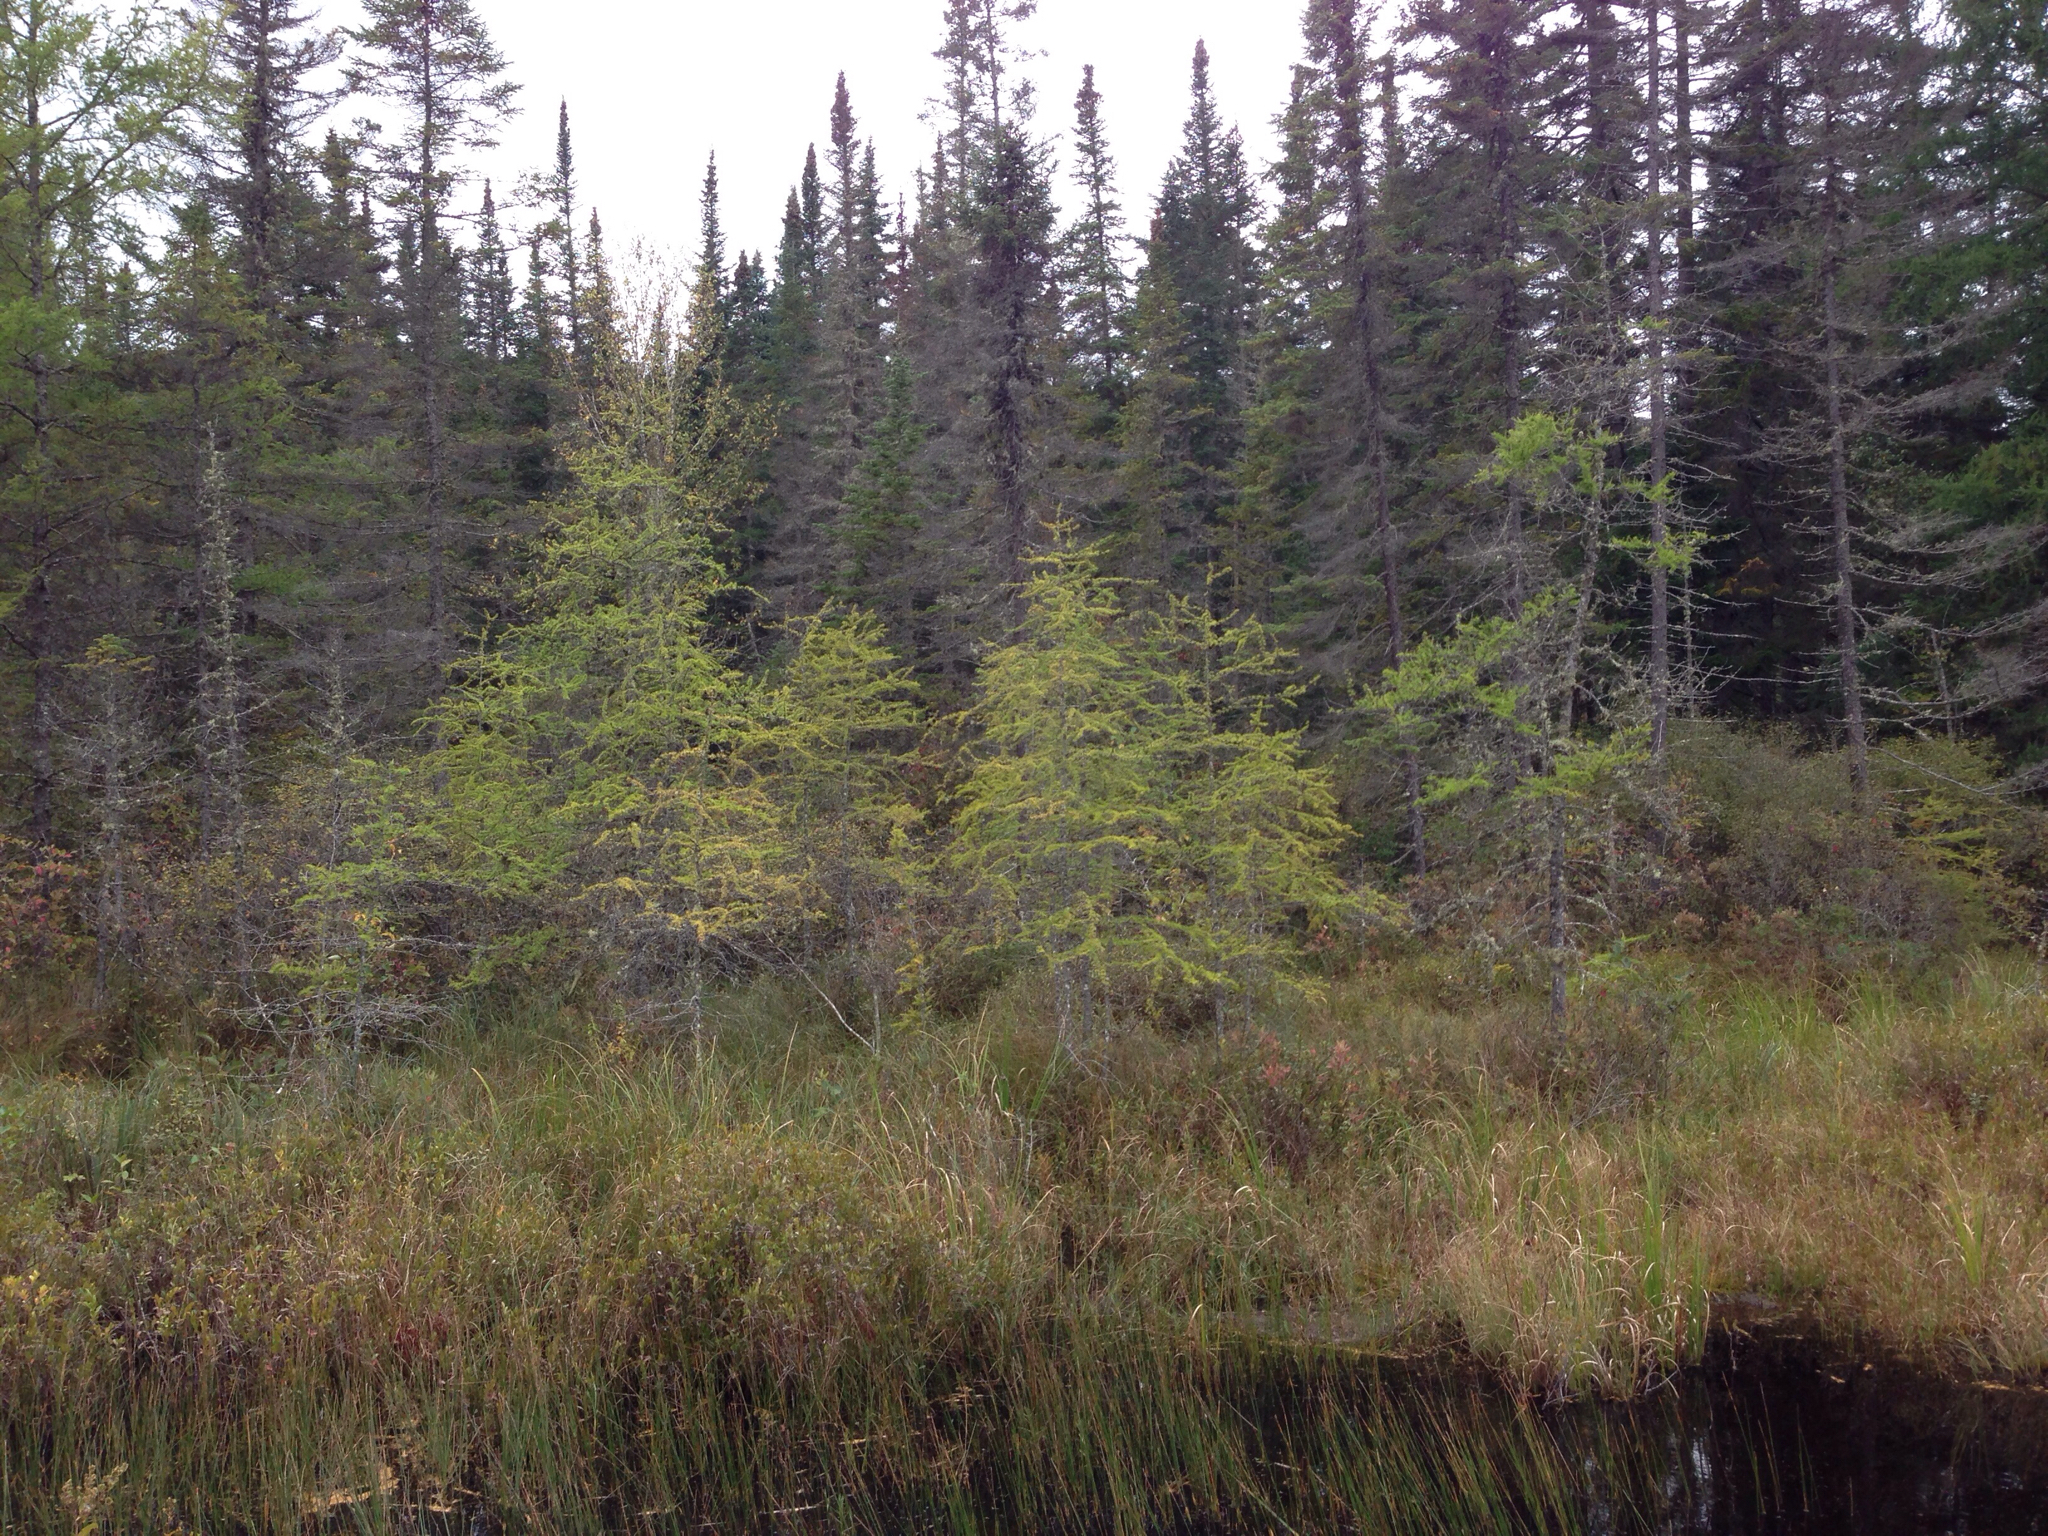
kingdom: Plantae
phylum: Tracheophyta
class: Pinopsida
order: Pinales
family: Pinaceae
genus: Larix
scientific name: Larix laricina
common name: American larch
